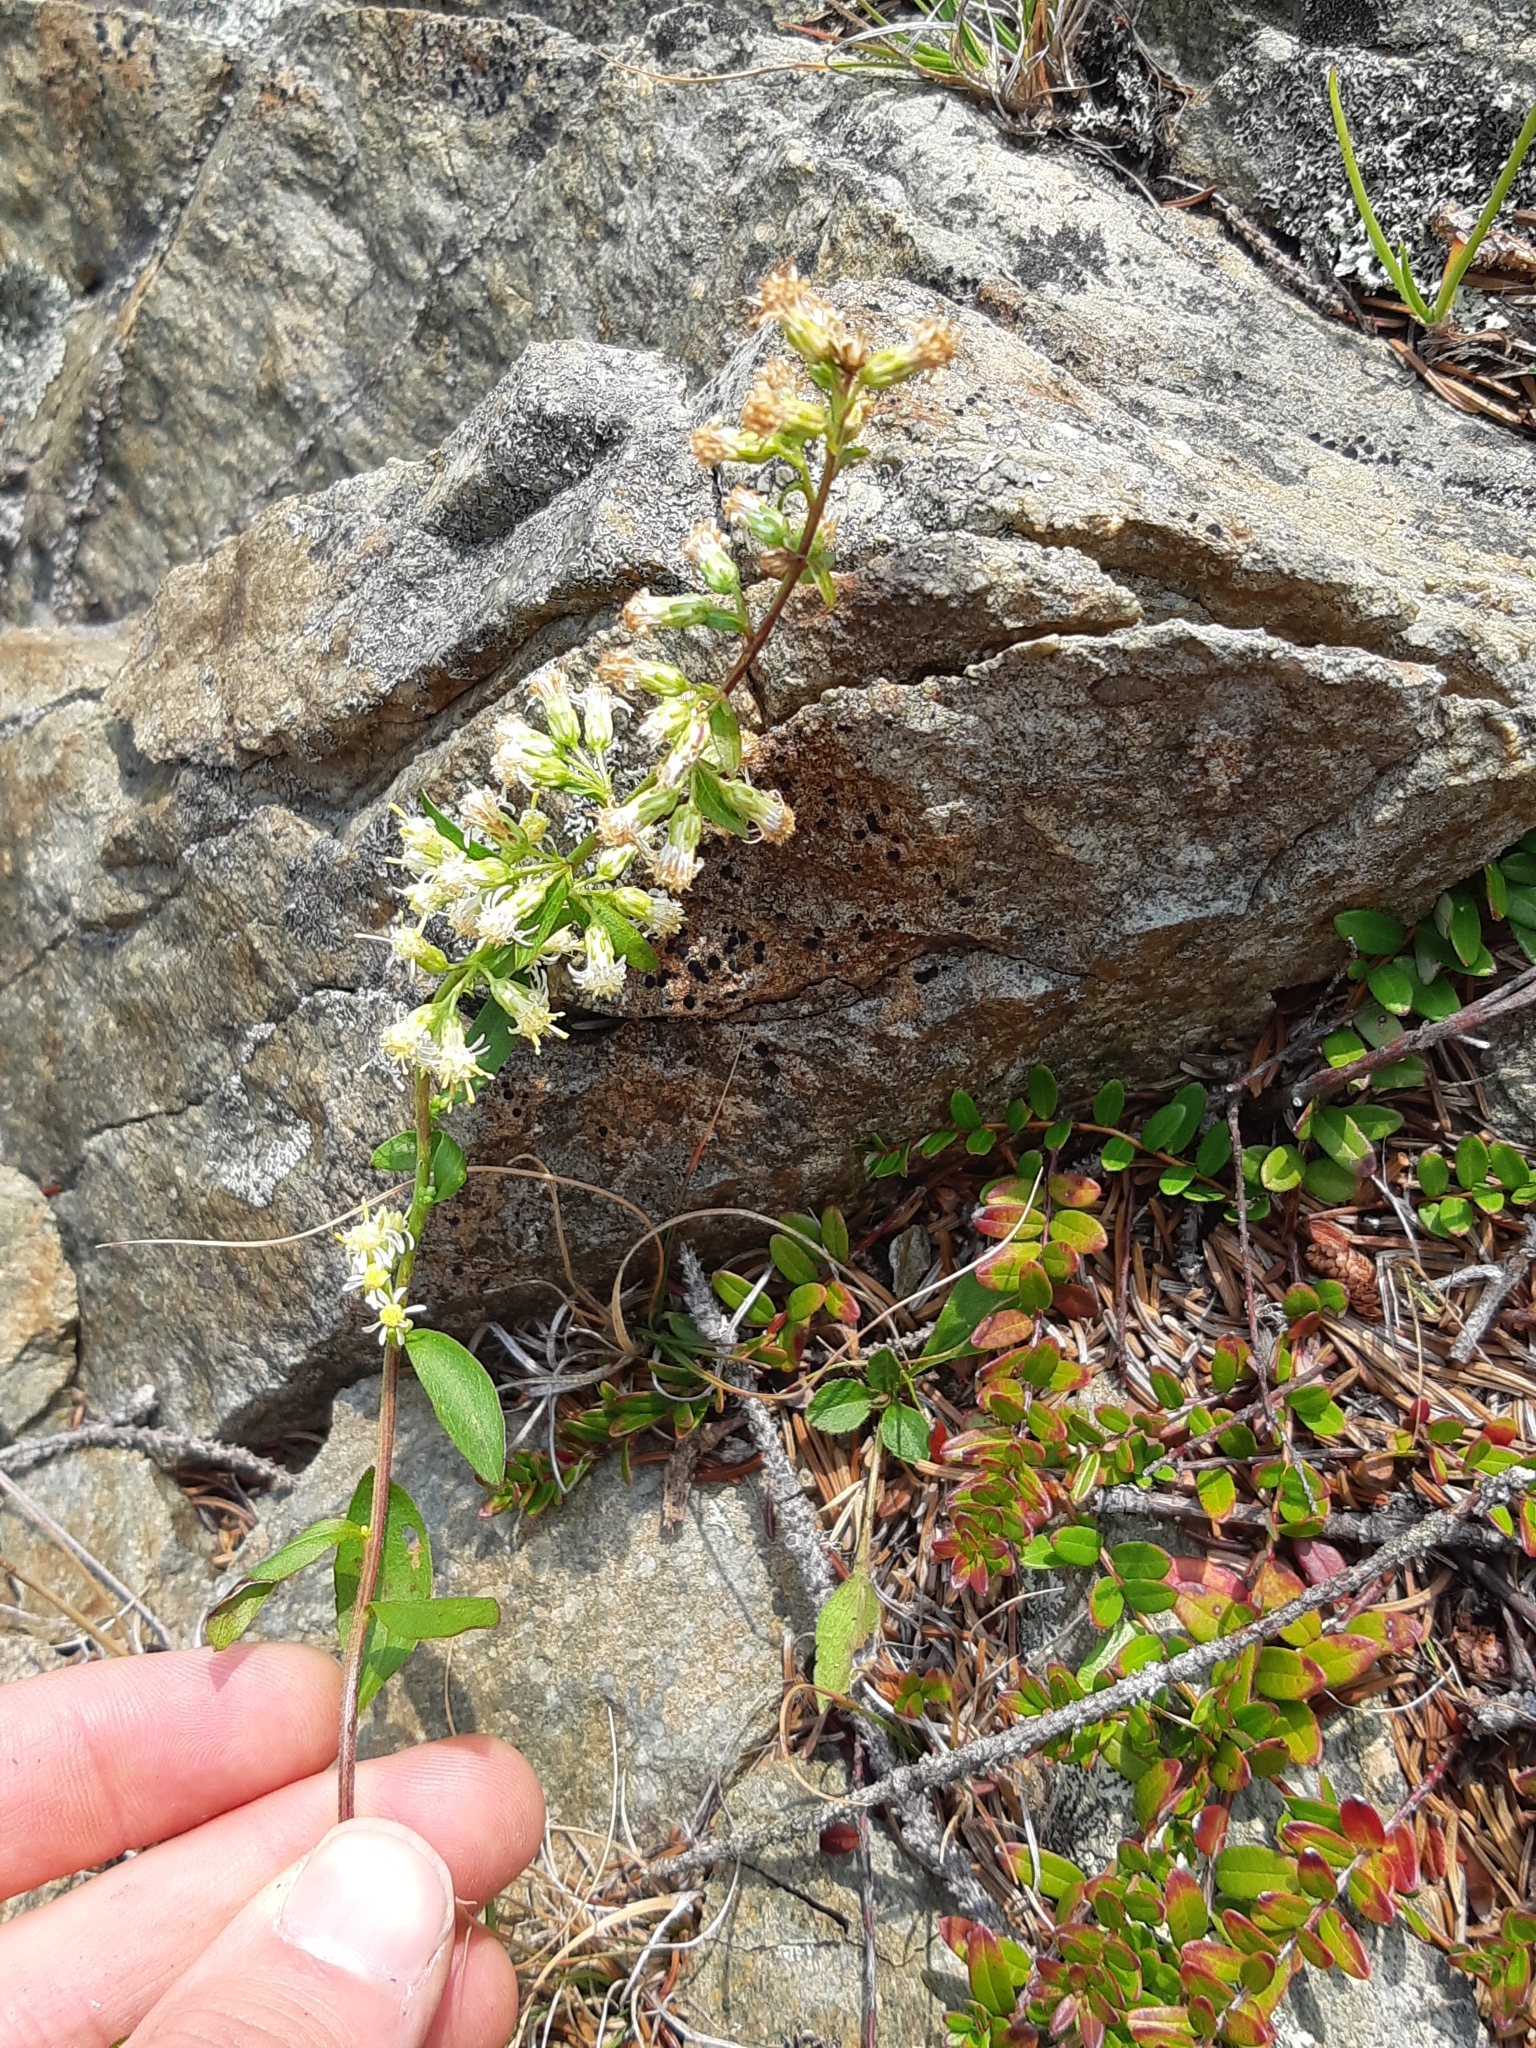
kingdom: Plantae
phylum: Tracheophyta
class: Magnoliopsida
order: Asterales
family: Asteraceae
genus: Solidago
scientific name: Solidago bicolor
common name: Silverrod
